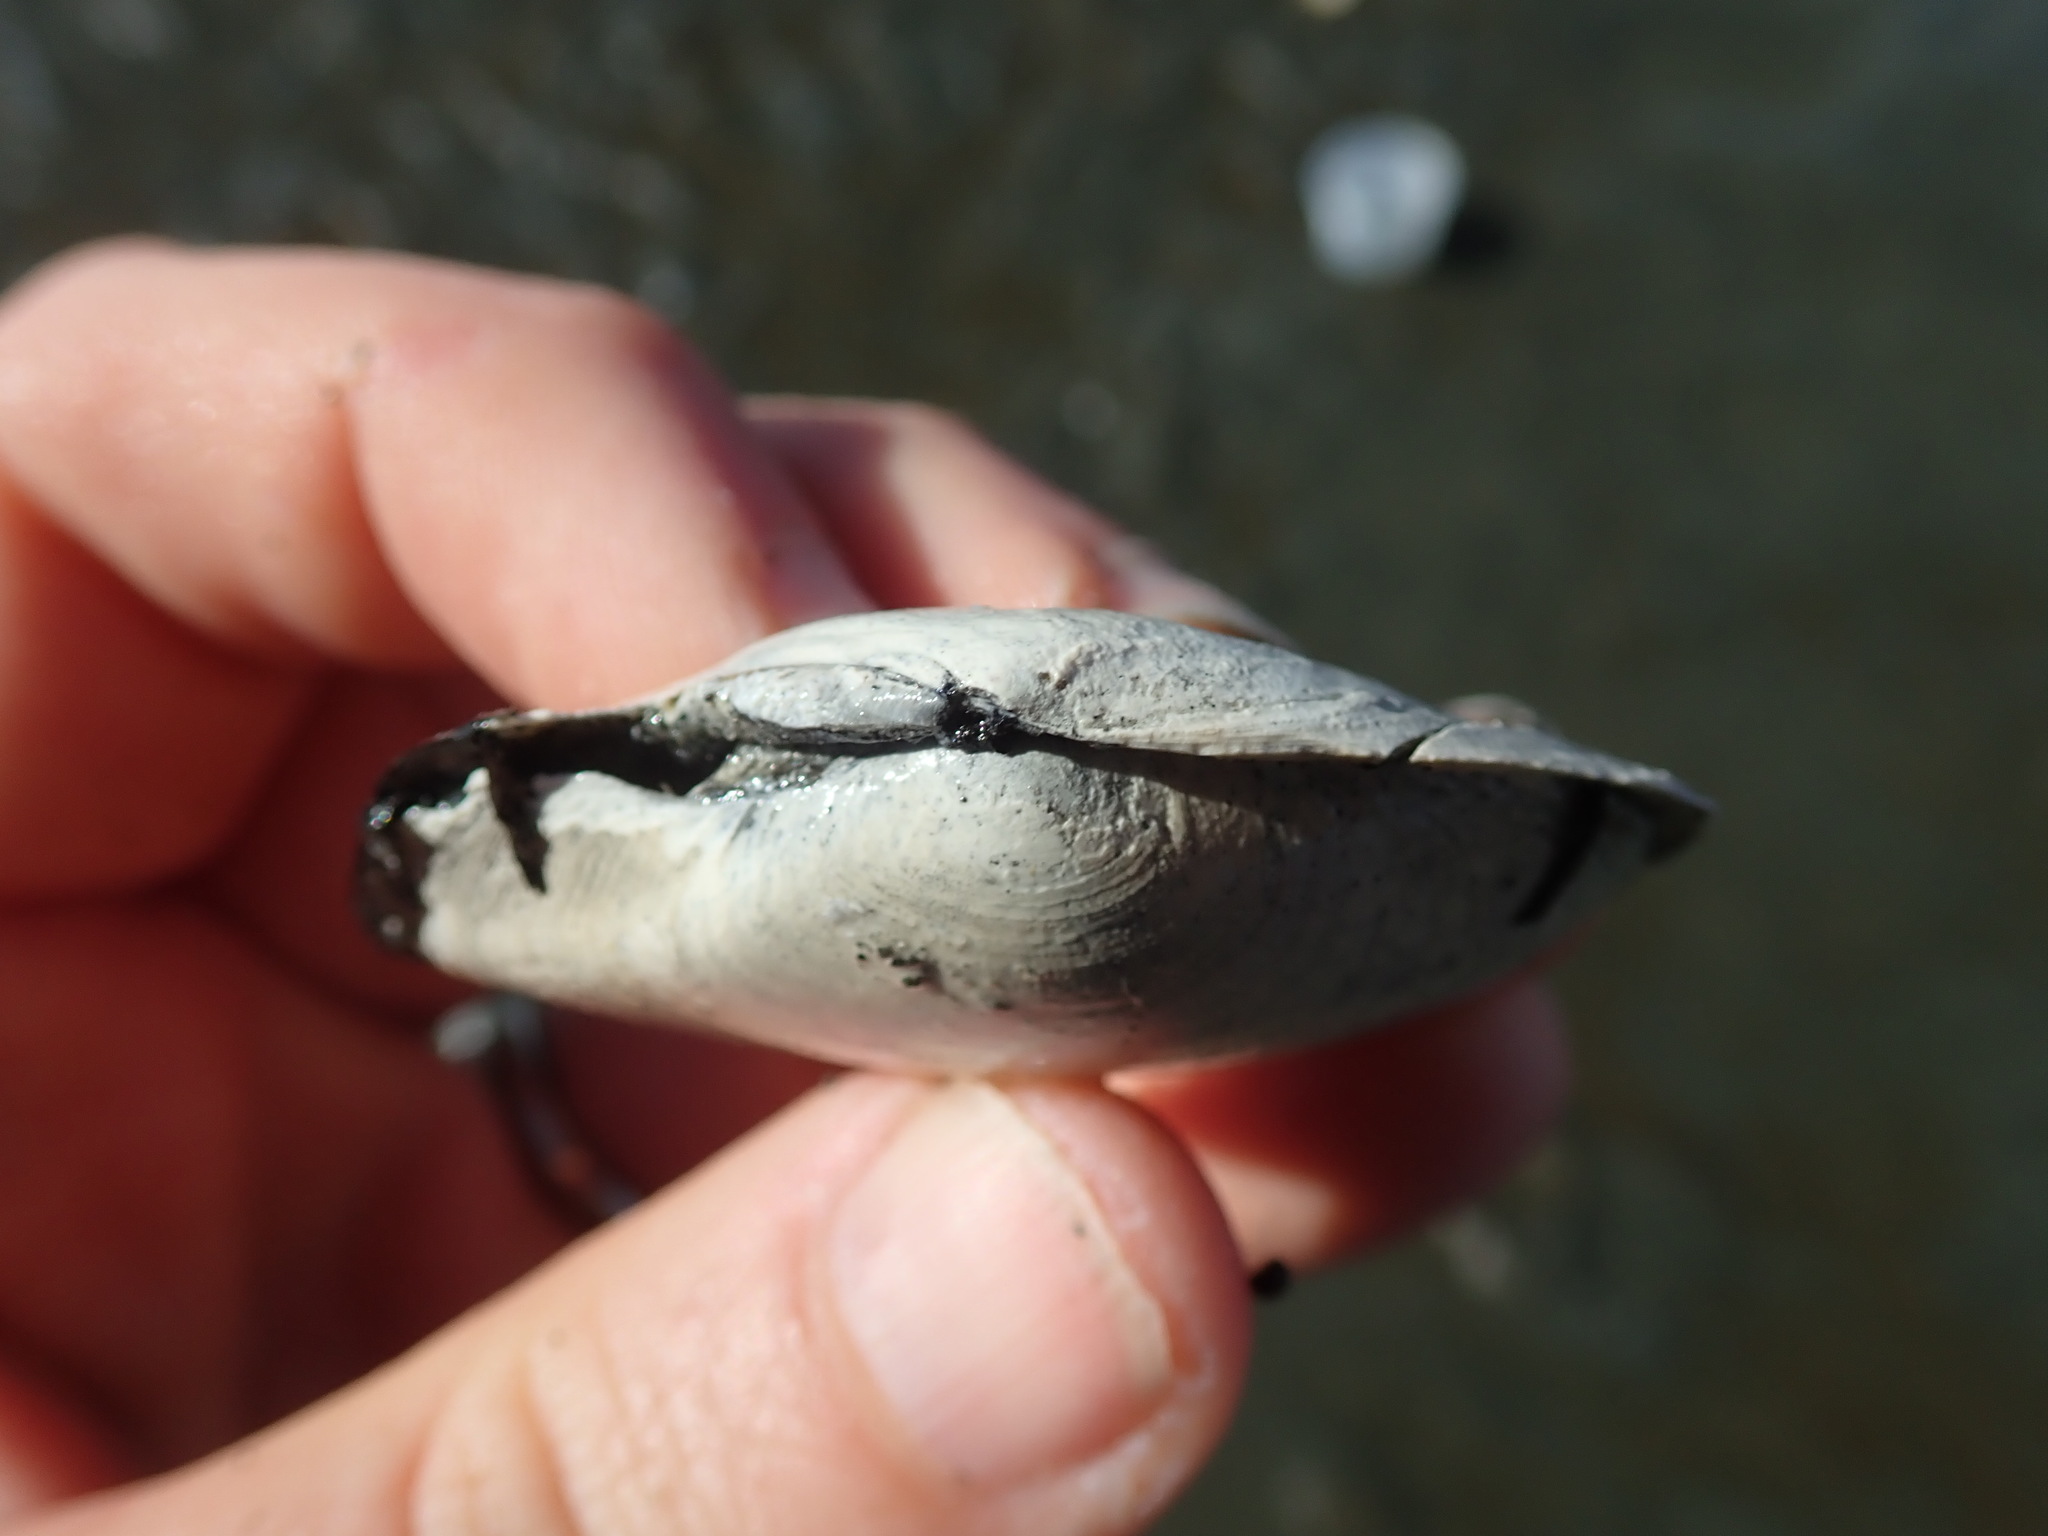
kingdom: Animalia
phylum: Mollusca
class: Bivalvia
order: Cardiida
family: Tellinidae
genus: Macoma
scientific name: Macoma nasuta
